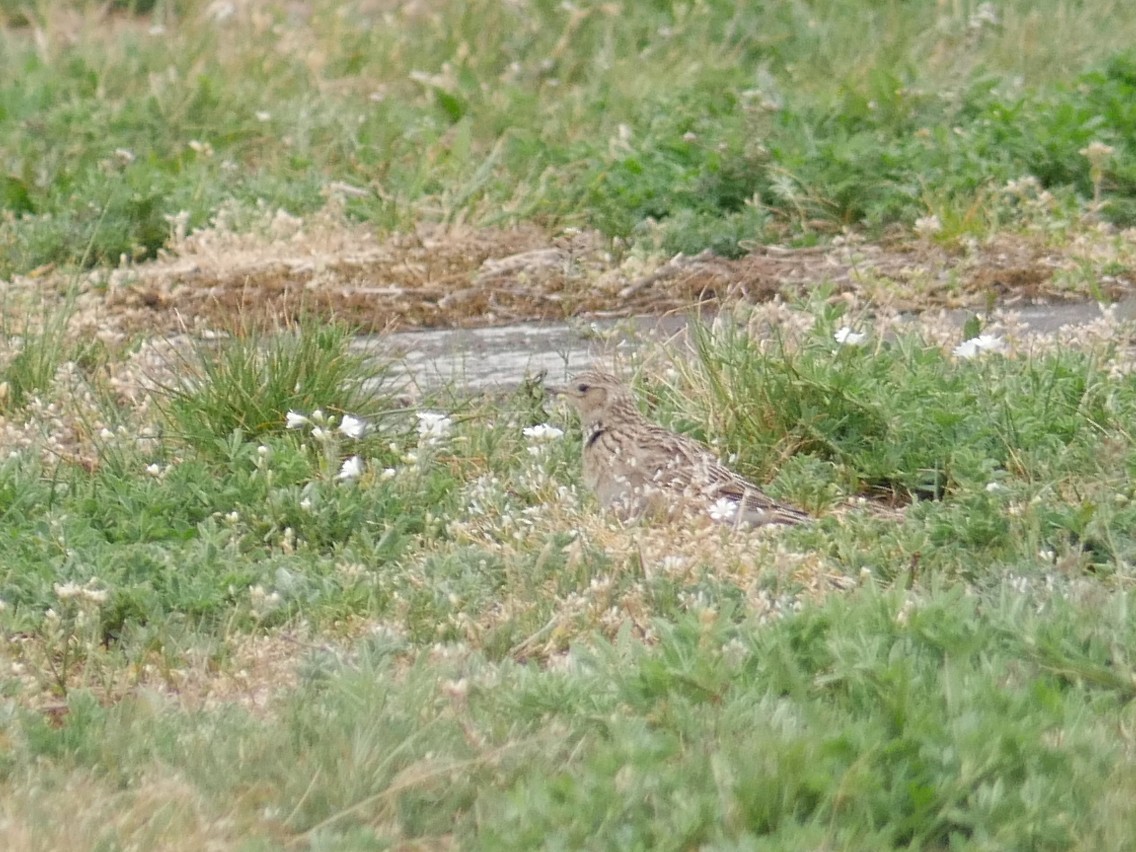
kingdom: Animalia
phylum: Chordata
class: Aves
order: Passeriformes
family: Alaudidae
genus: Alauda
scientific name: Alauda arvensis
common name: Eurasian skylark
